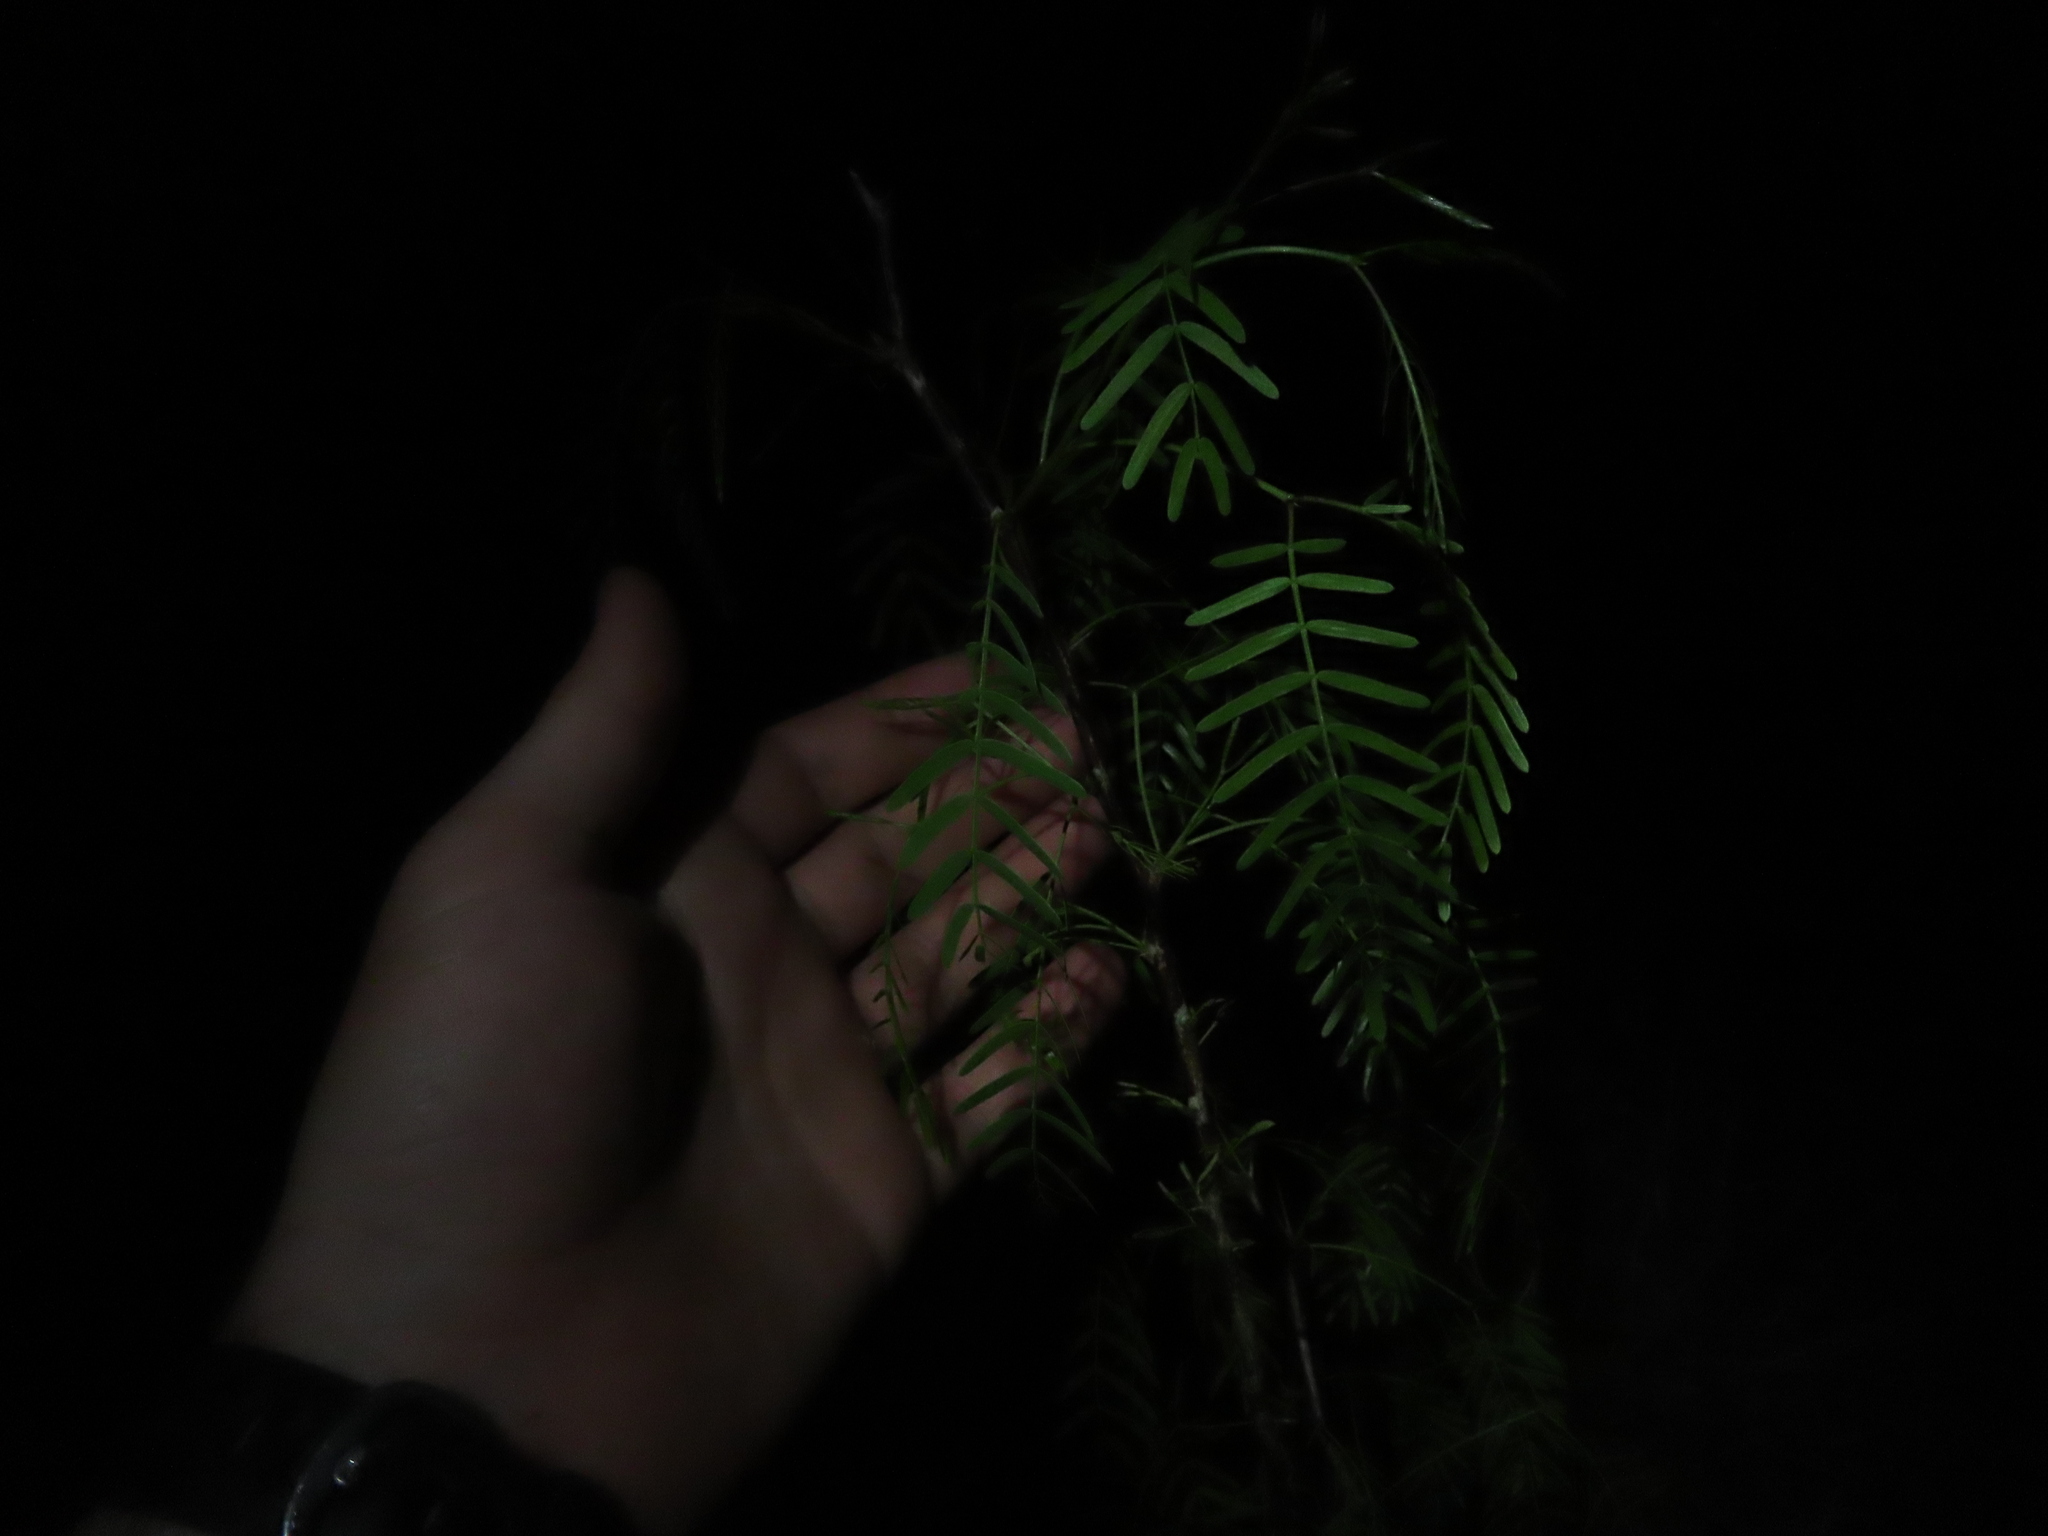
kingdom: Plantae
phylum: Tracheophyta
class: Magnoliopsida
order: Fabales
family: Fabaceae
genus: Prosopis
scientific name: Prosopis glandulosa
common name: Honey mesquite
